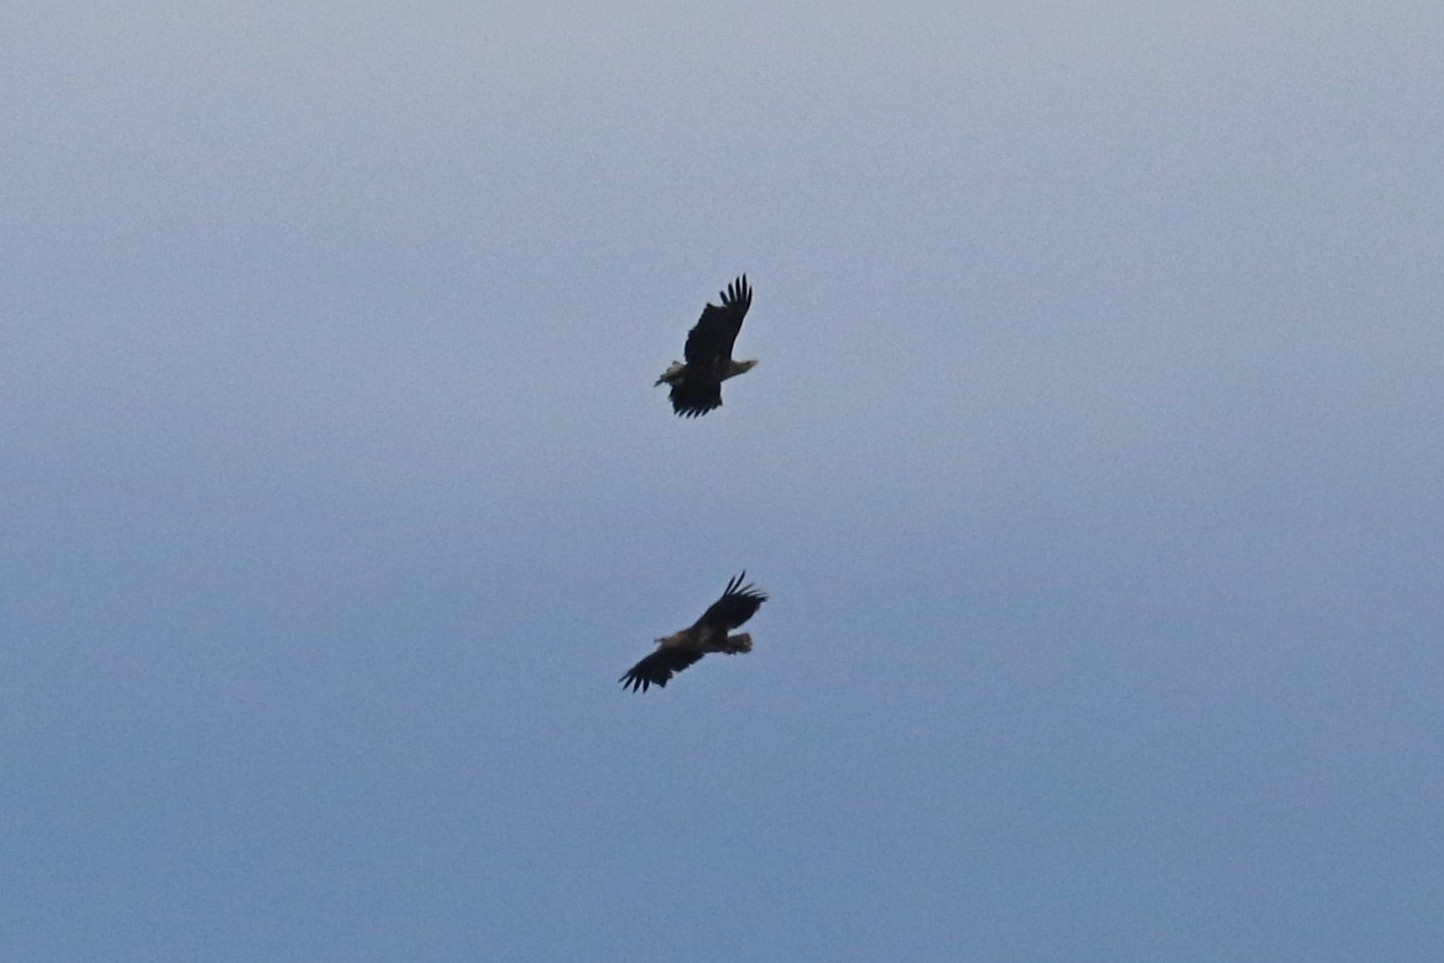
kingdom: Animalia
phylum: Chordata
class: Aves
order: Accipitriformes
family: Accipitridae
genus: Haliaeetus
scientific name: Haliaeetus albicilla
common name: White-tailed eagle
